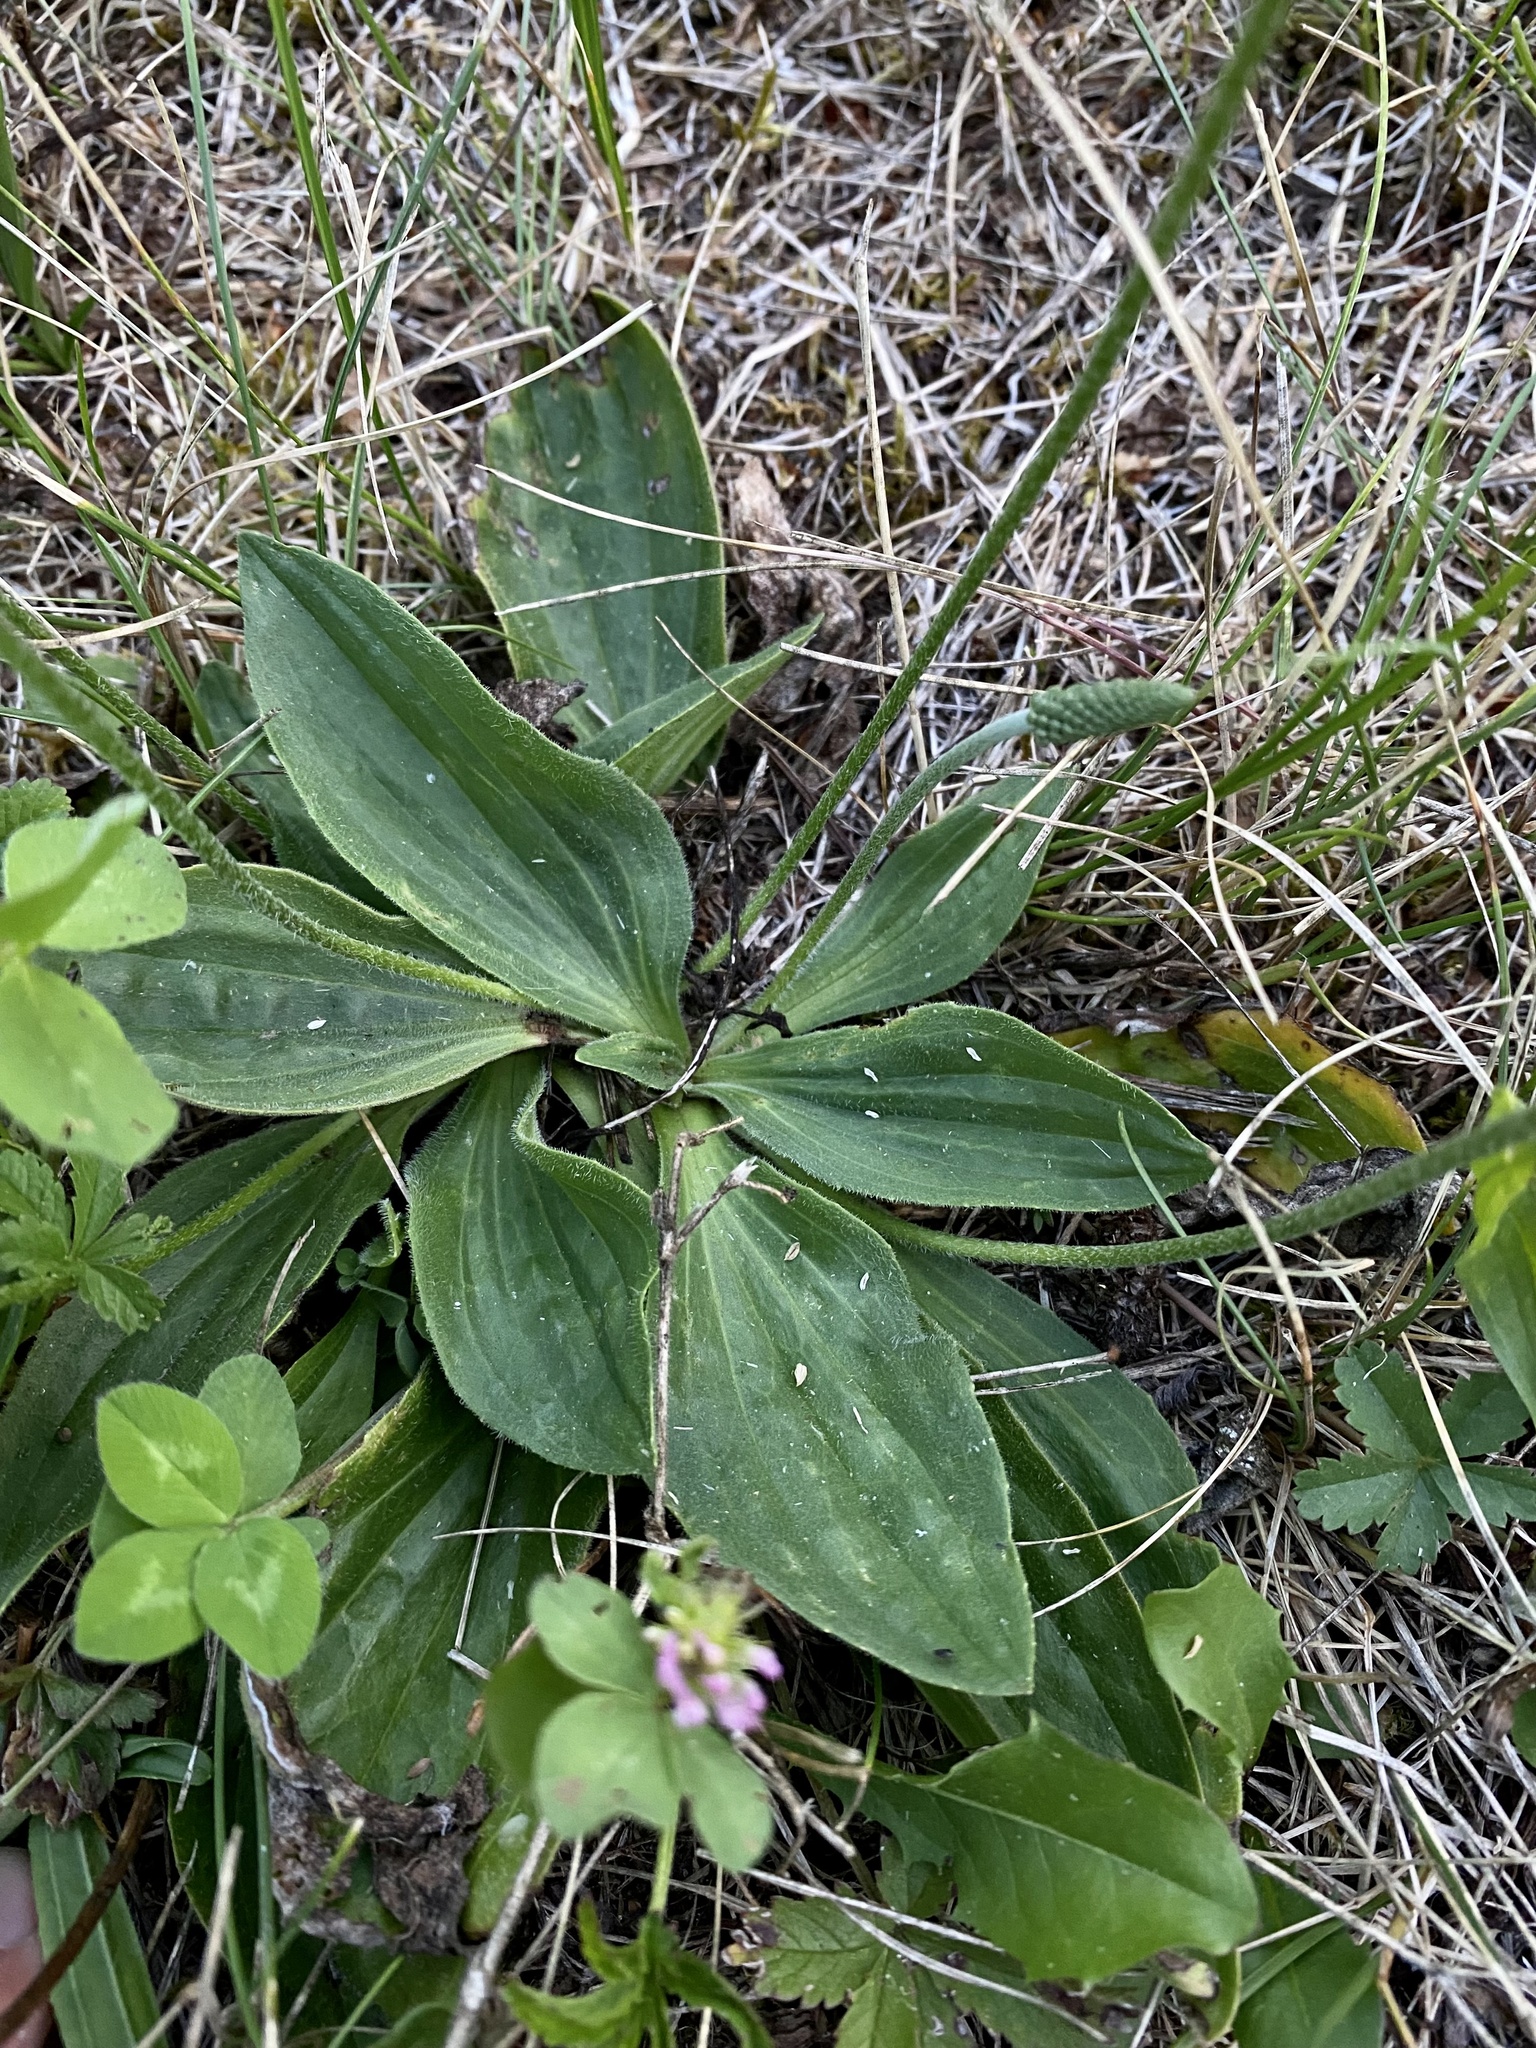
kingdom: Plantae
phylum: Tracheophyta
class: Magnoliopsida
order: Lamiales
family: Plantaginaceae
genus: Plantago
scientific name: Plantago media
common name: Hoary plantain
